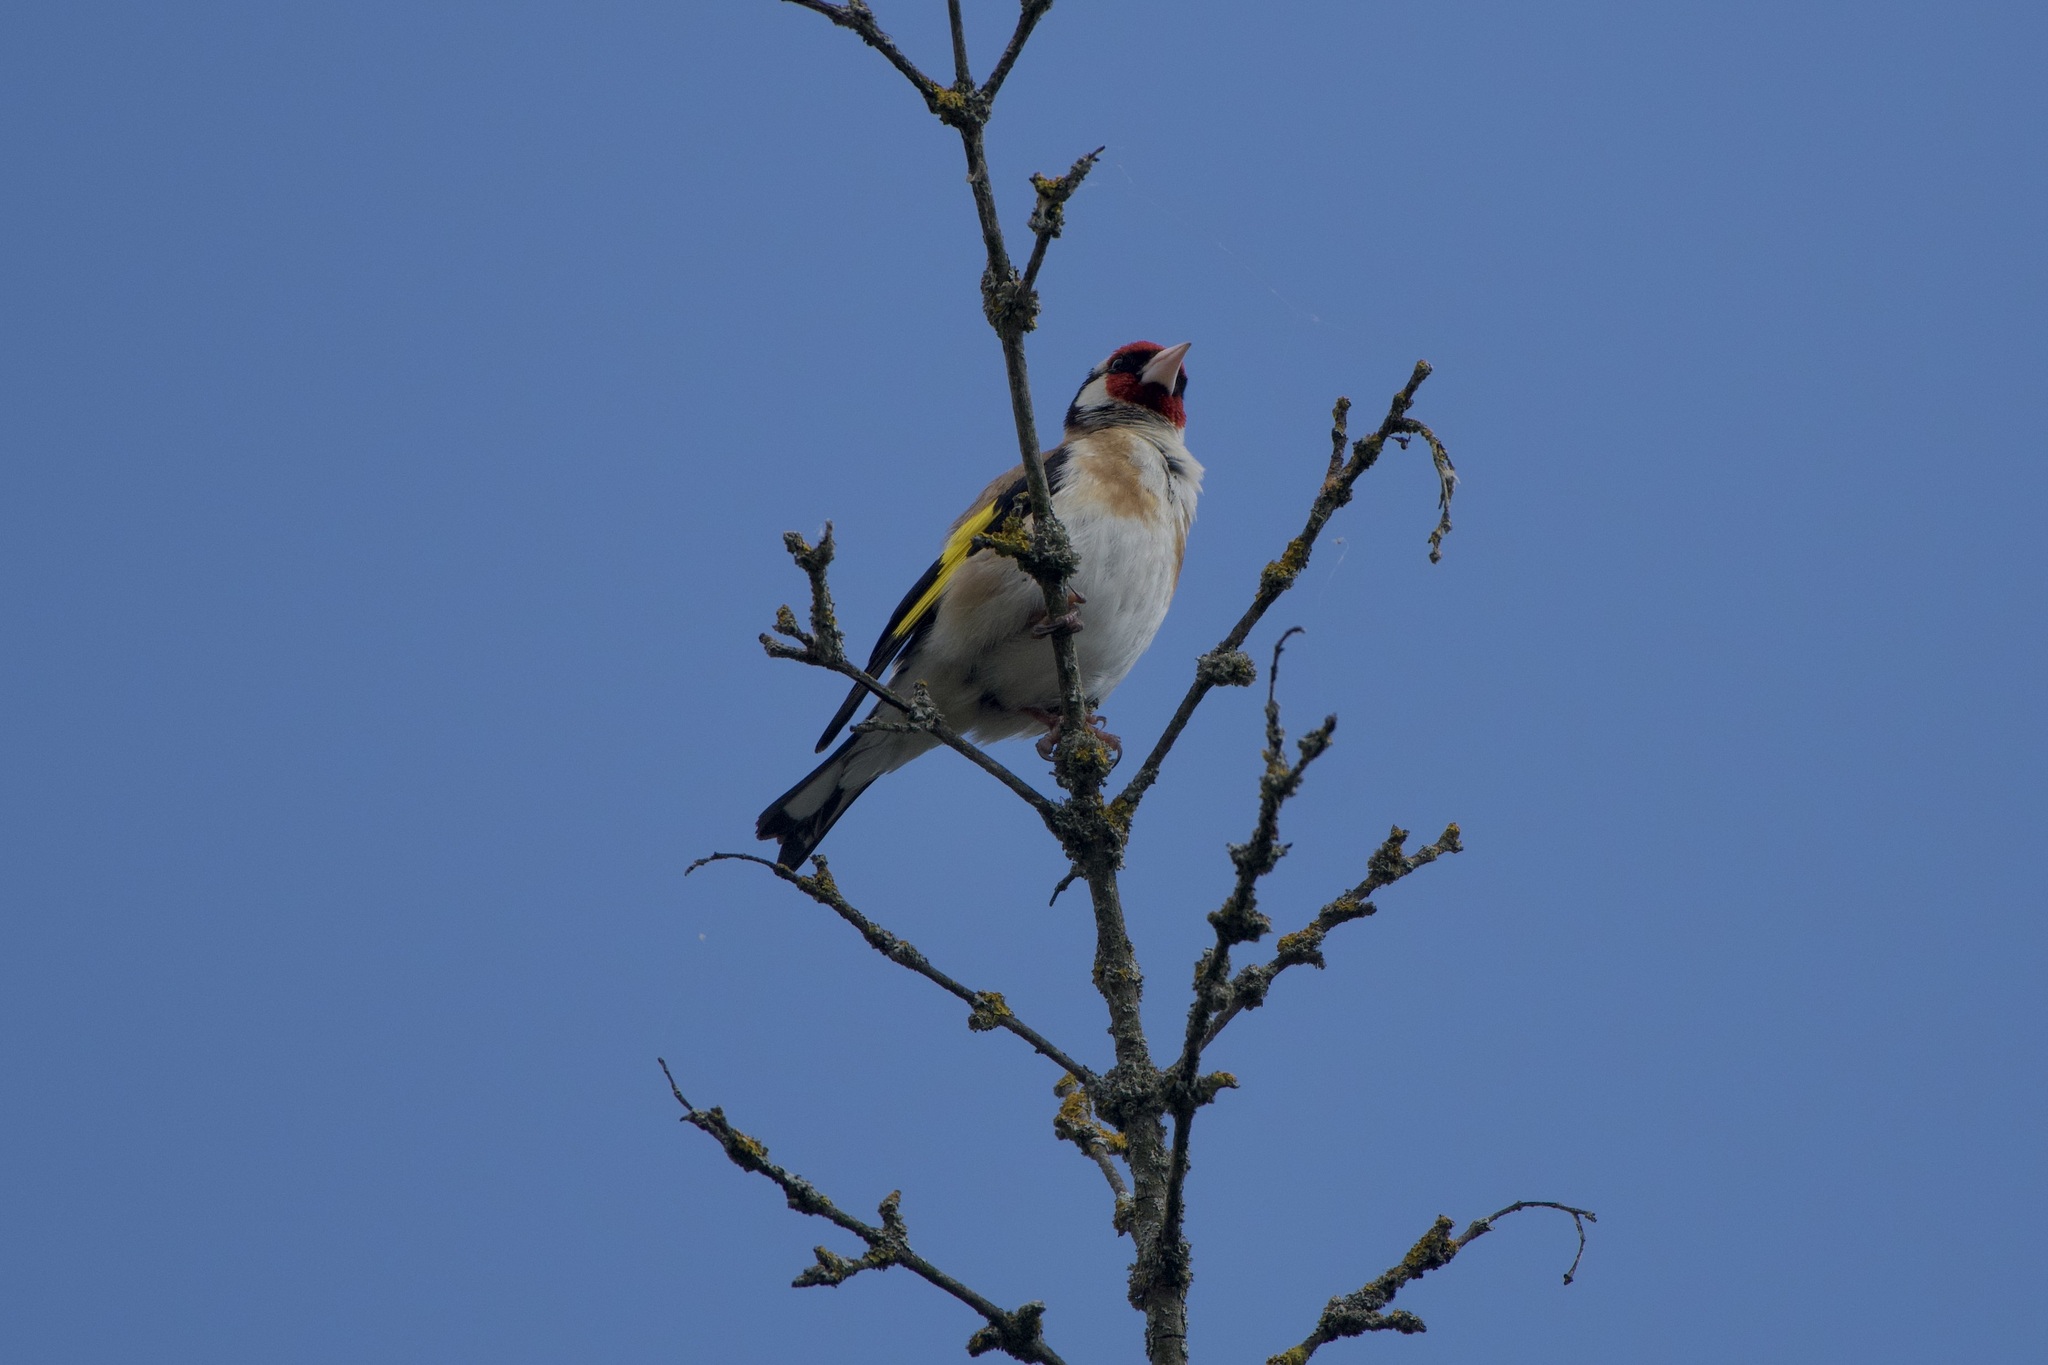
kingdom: Animalia
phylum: Chordata
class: Aves
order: Passeriformes
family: Fringillidae
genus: Carduelis
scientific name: Carduelis carduelis
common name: European goldfinch
